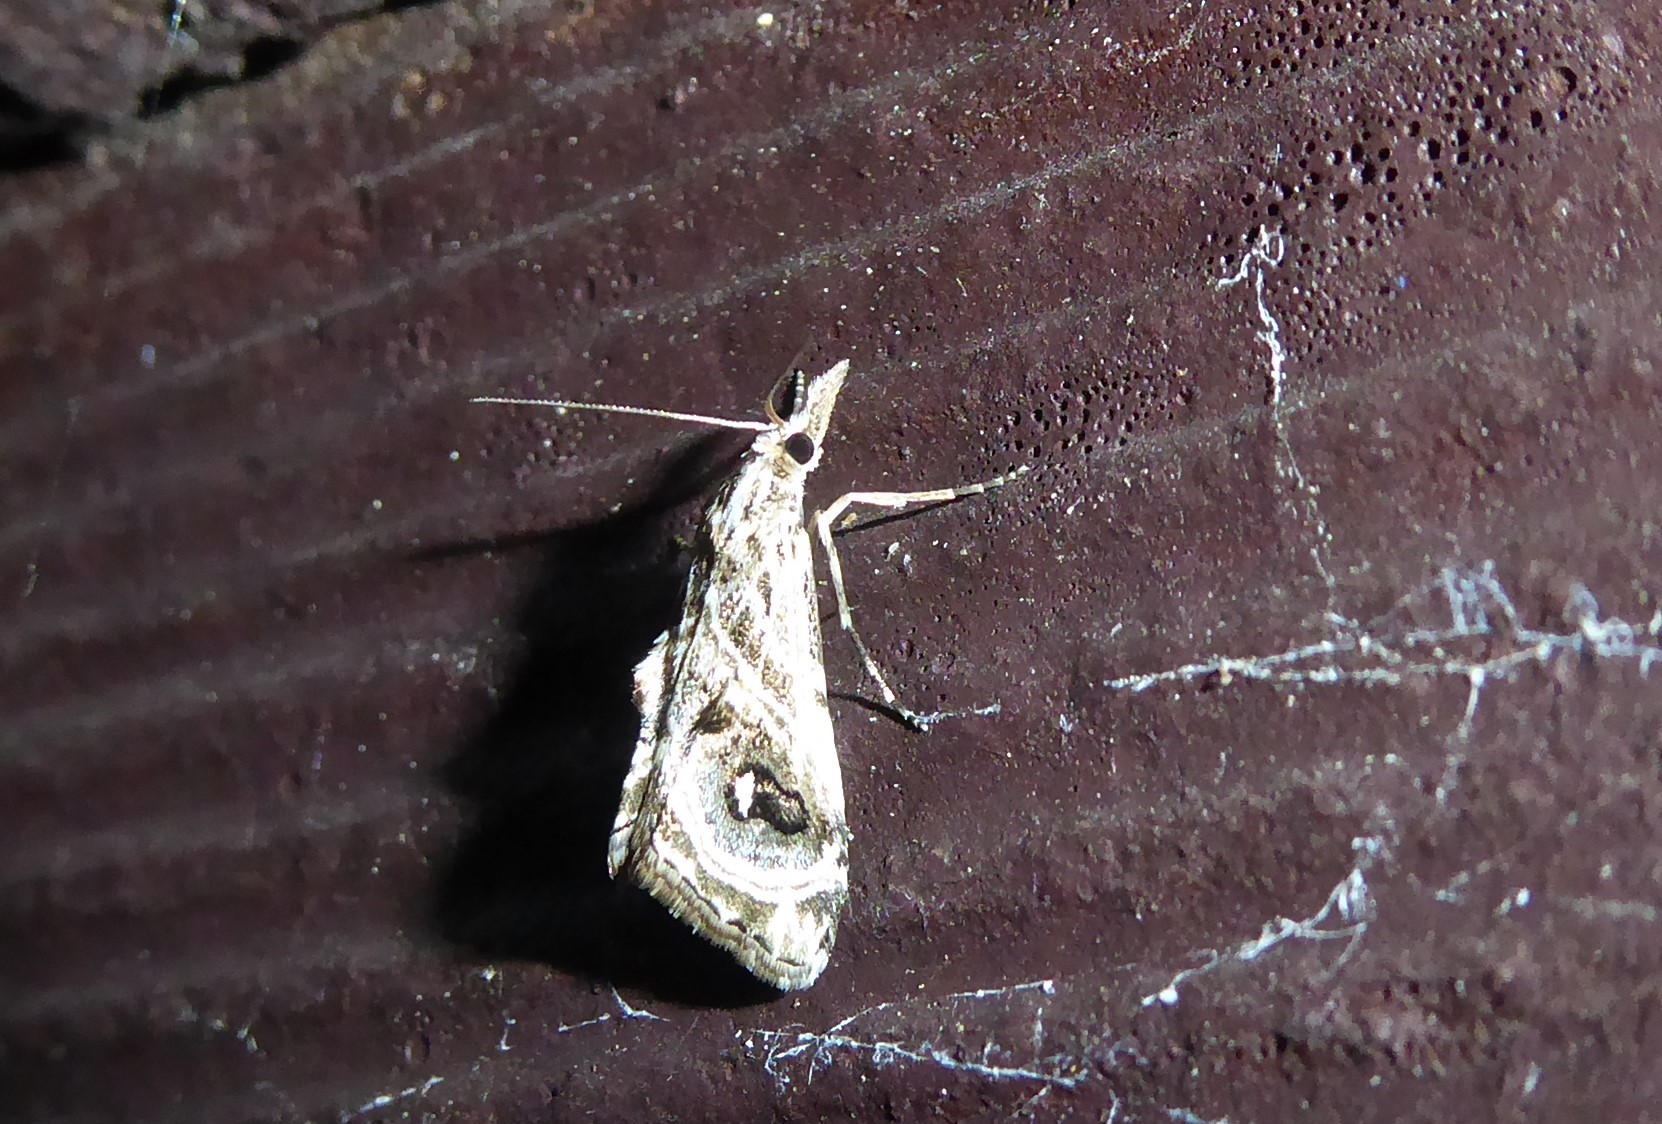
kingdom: Animalia
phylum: Arthropoda
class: Insecta
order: Lepidoptera
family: Crambidae
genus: Gadira
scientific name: Gadira acerella
